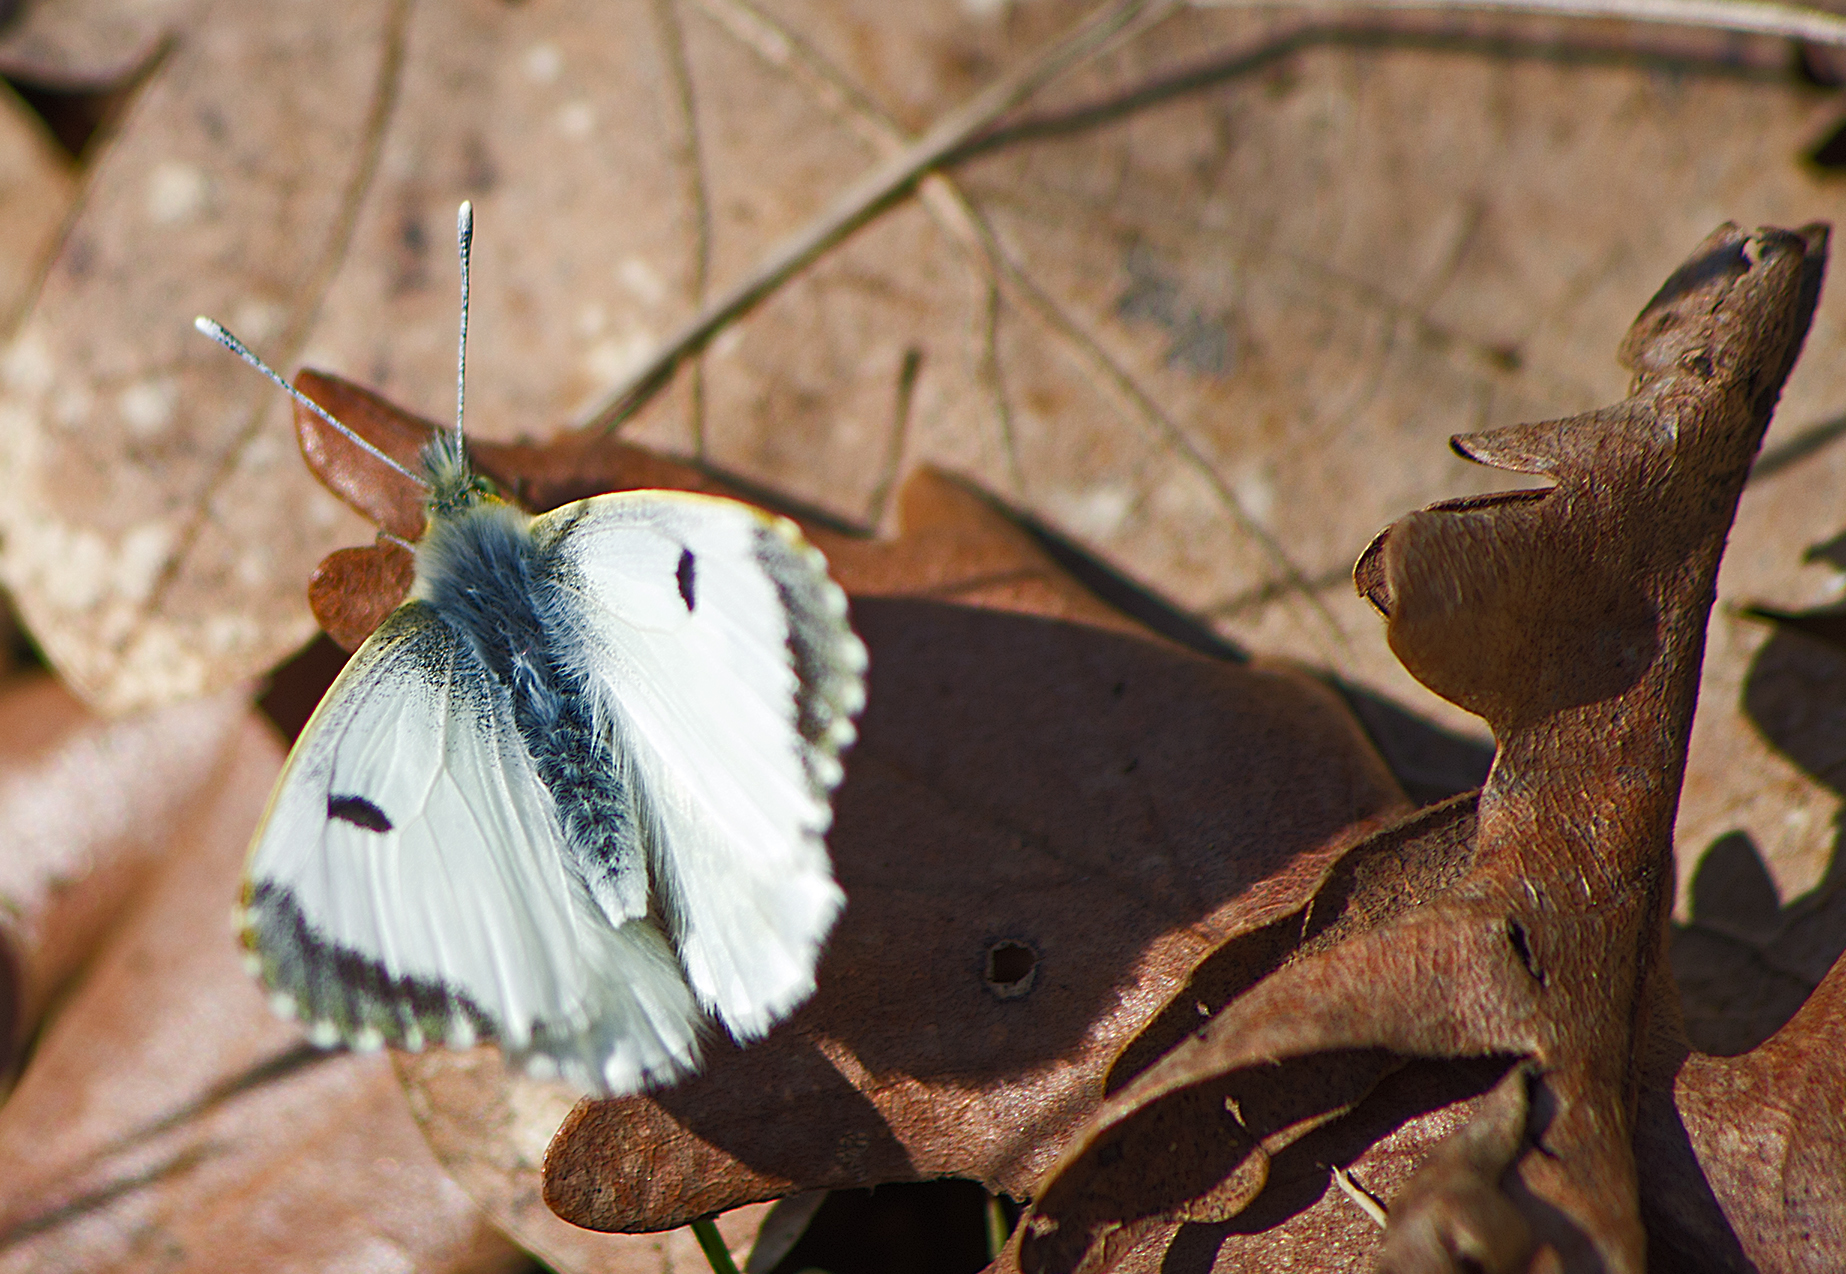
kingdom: Animalia
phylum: Arthropoda
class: Insecta
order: Lepidoptera
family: Pieridae
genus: Anthocharis
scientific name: Anthocharis cardamines
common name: Orange-tip
